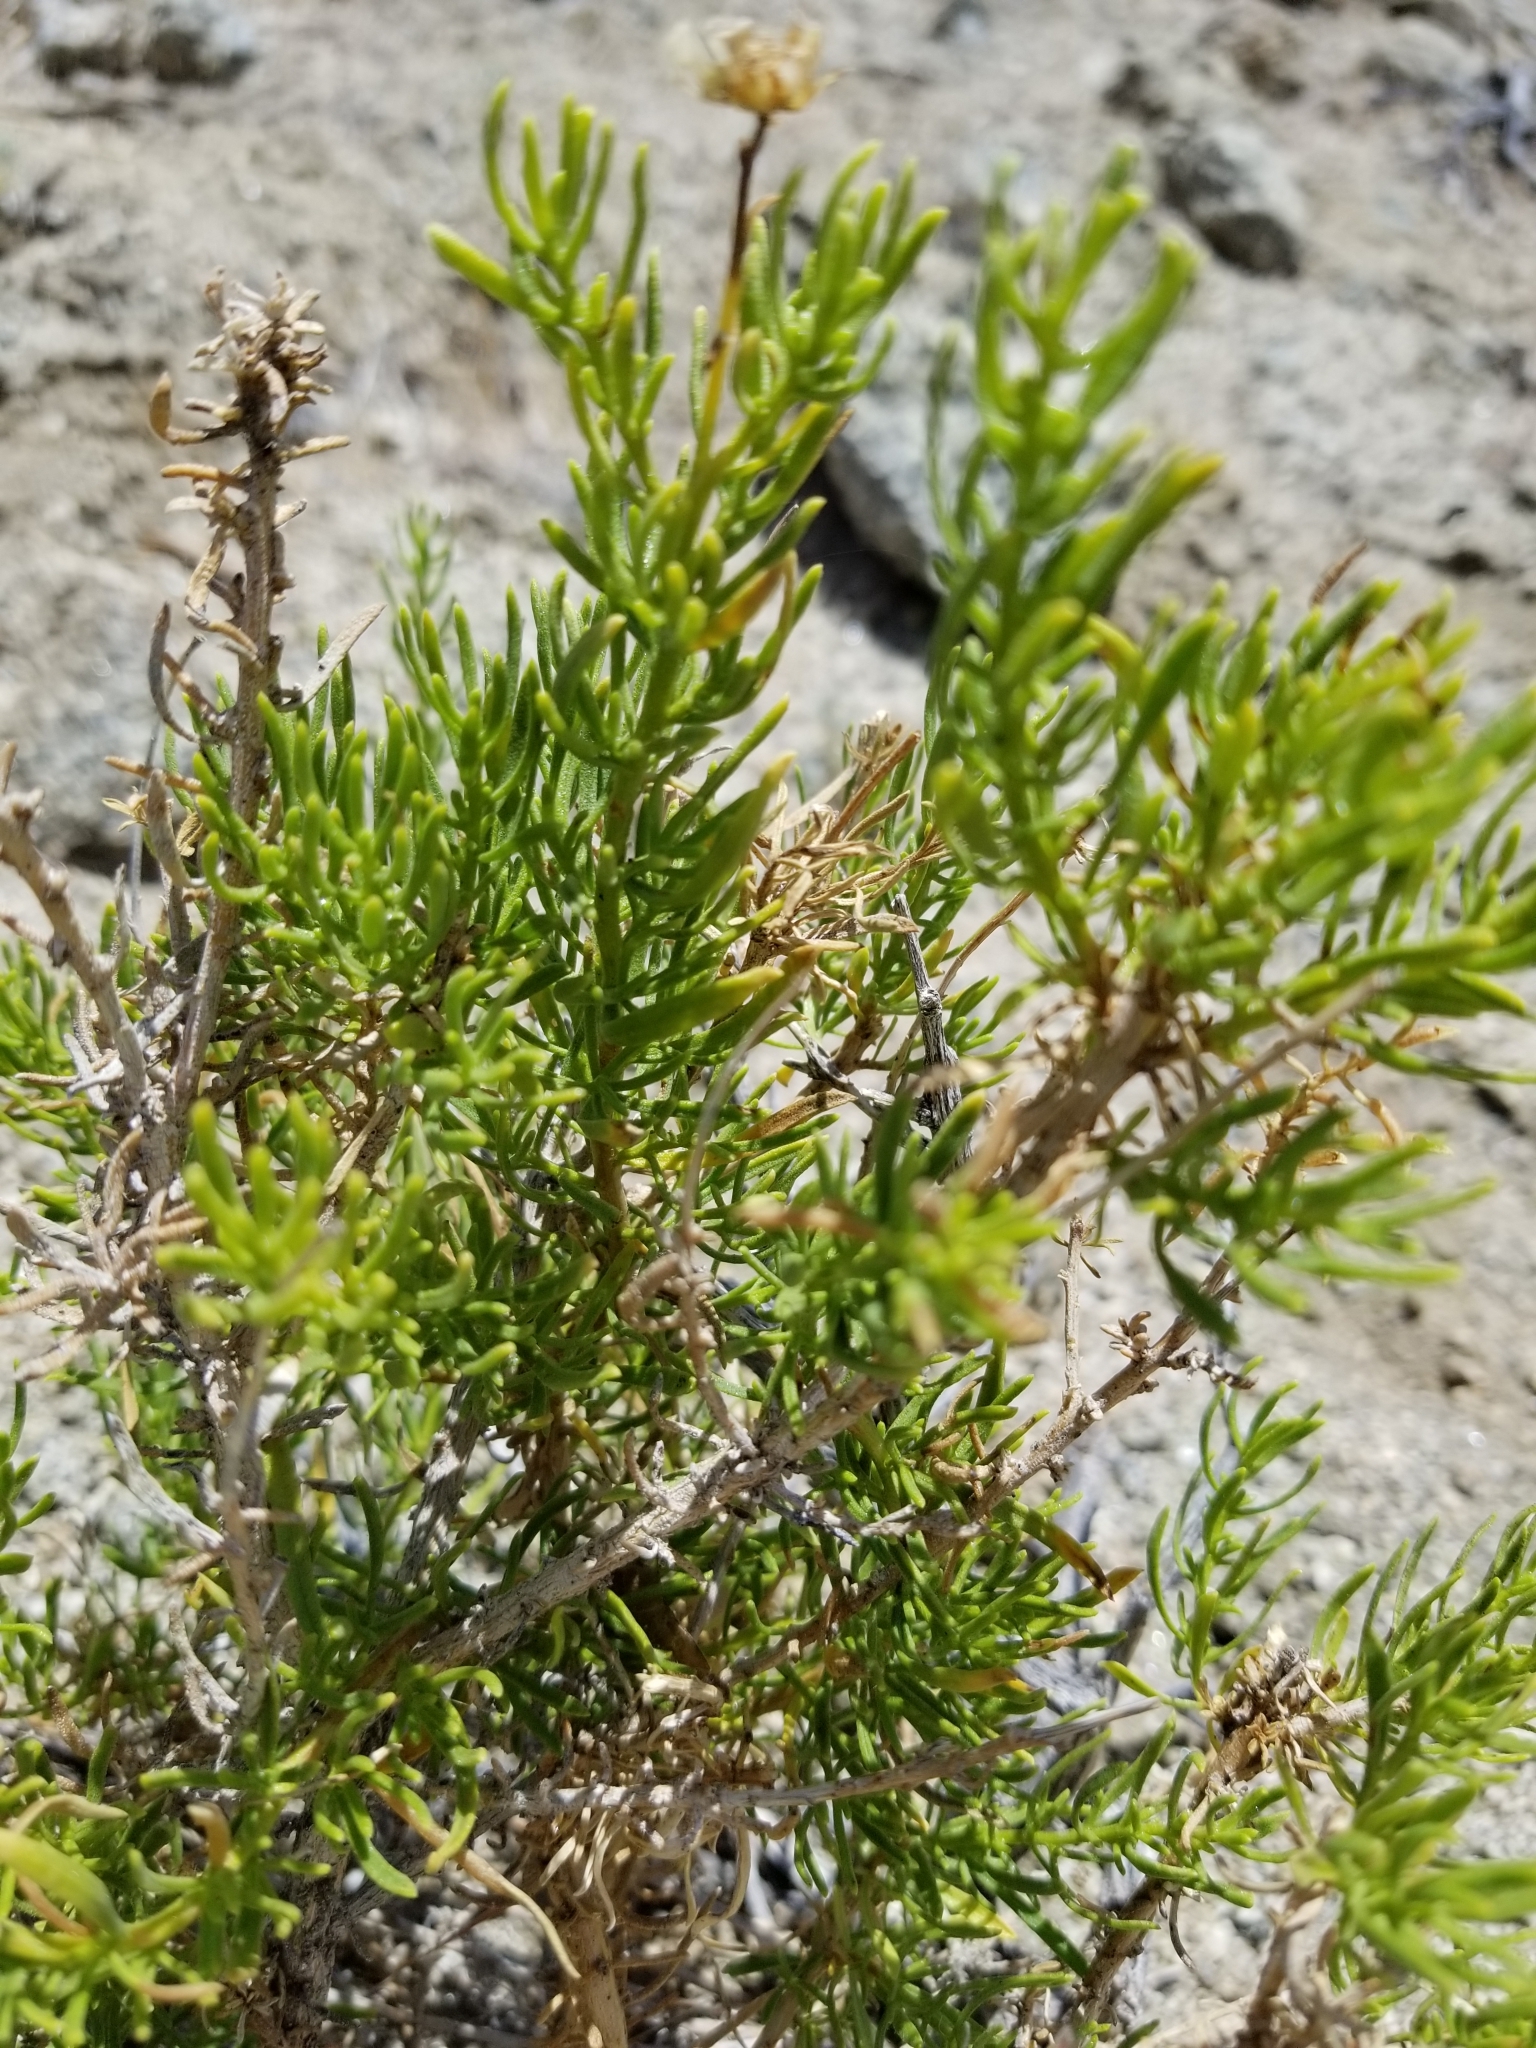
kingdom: Plantae
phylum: Tracheophyta
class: Magnoliopsida
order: Asterales
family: Asteraceae
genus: Ericameria
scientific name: Ericameria linearifolia
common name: Interior goldenbush
